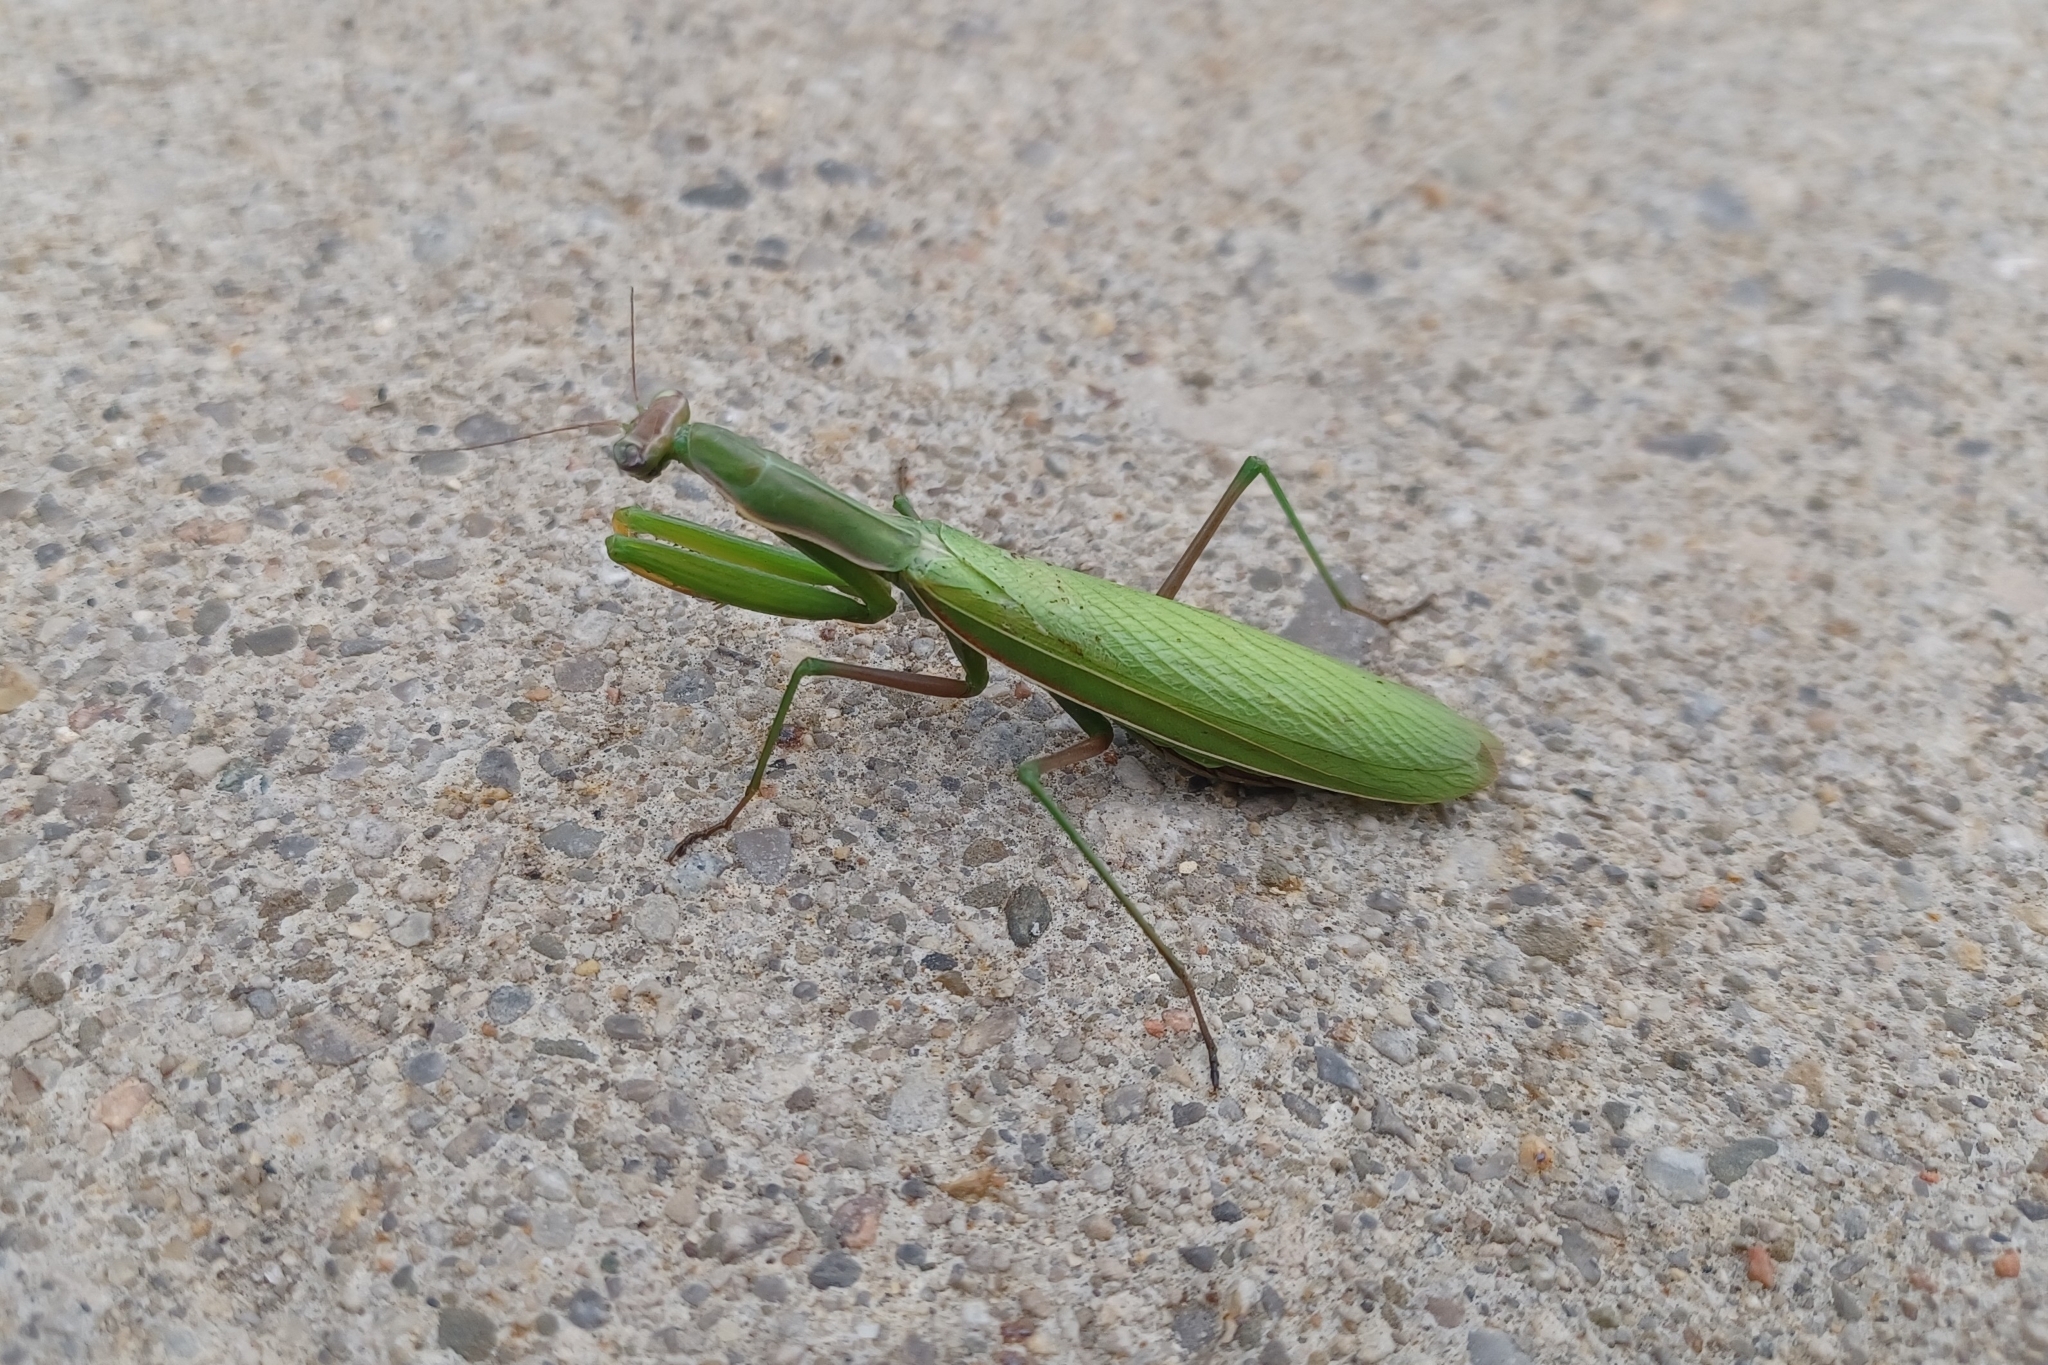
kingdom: Animalia
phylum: Arthropoda
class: Insecta
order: Mantodea
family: Mantidae
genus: Mantis
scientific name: Mantis religiosa
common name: Praying mantis
